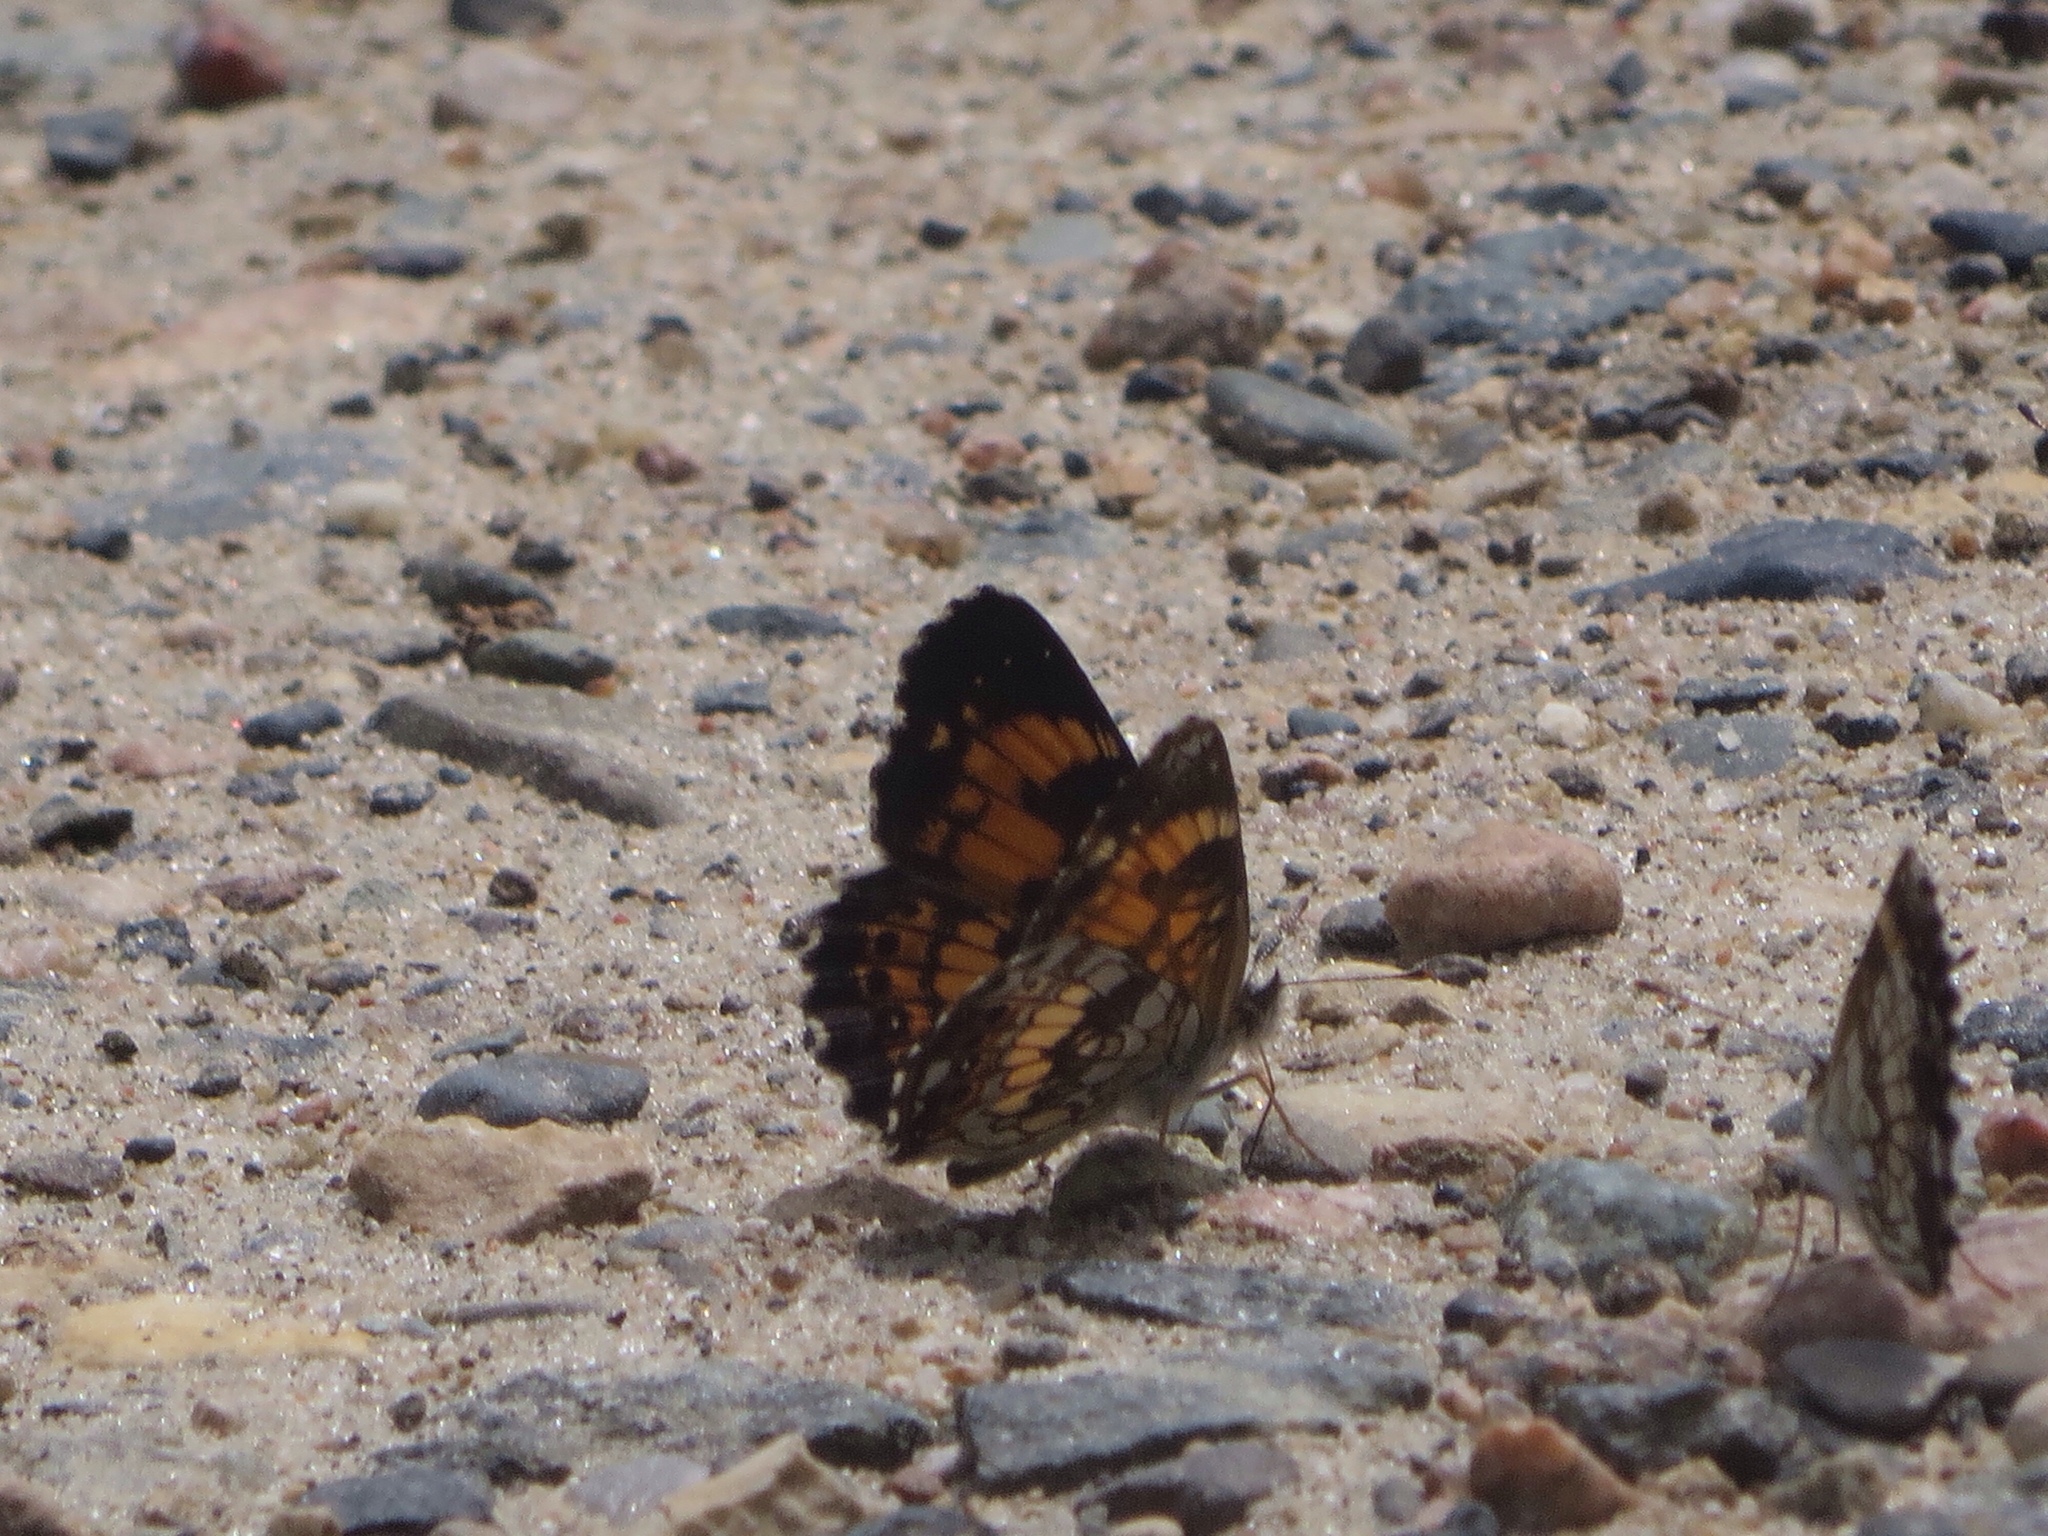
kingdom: Animalia
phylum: Arthropoda
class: Insecta
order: Lepidoptera
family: Nymphalidae
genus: Chlosyne
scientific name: Chlosyne nycteis
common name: Silvery checkerspot
